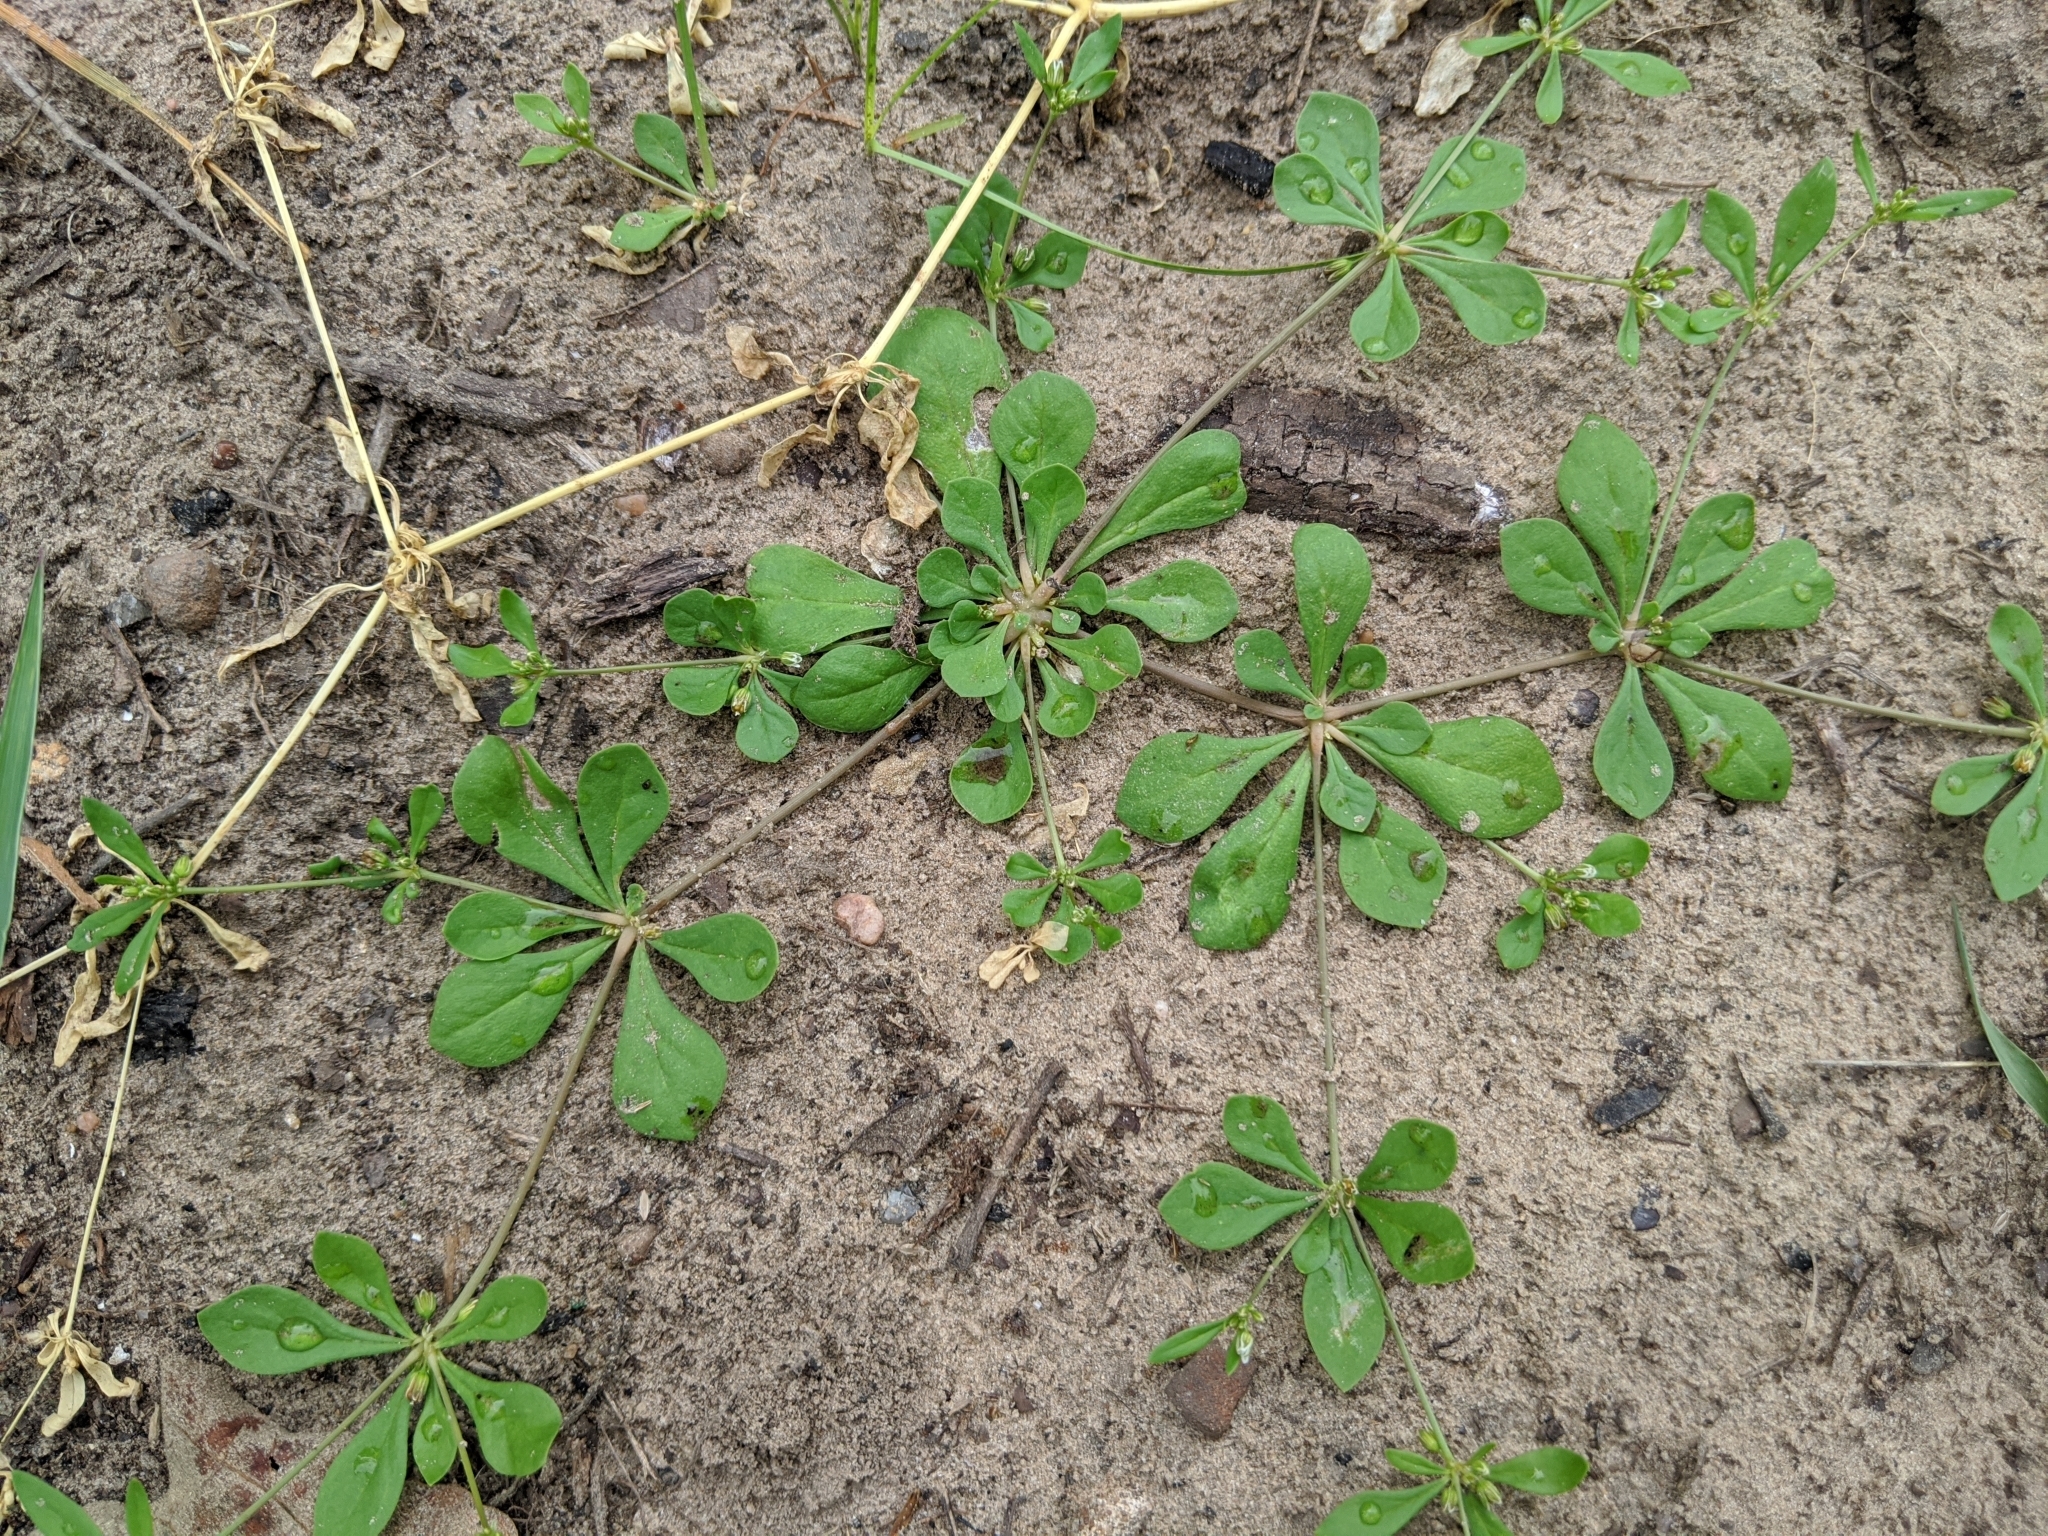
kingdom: Plantae
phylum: Tracheophyta
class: Magnoliopsida
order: Caryophyllales
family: Molluginaceae
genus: Mollugo
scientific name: Mollugo verticillata
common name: Green carpetweed
